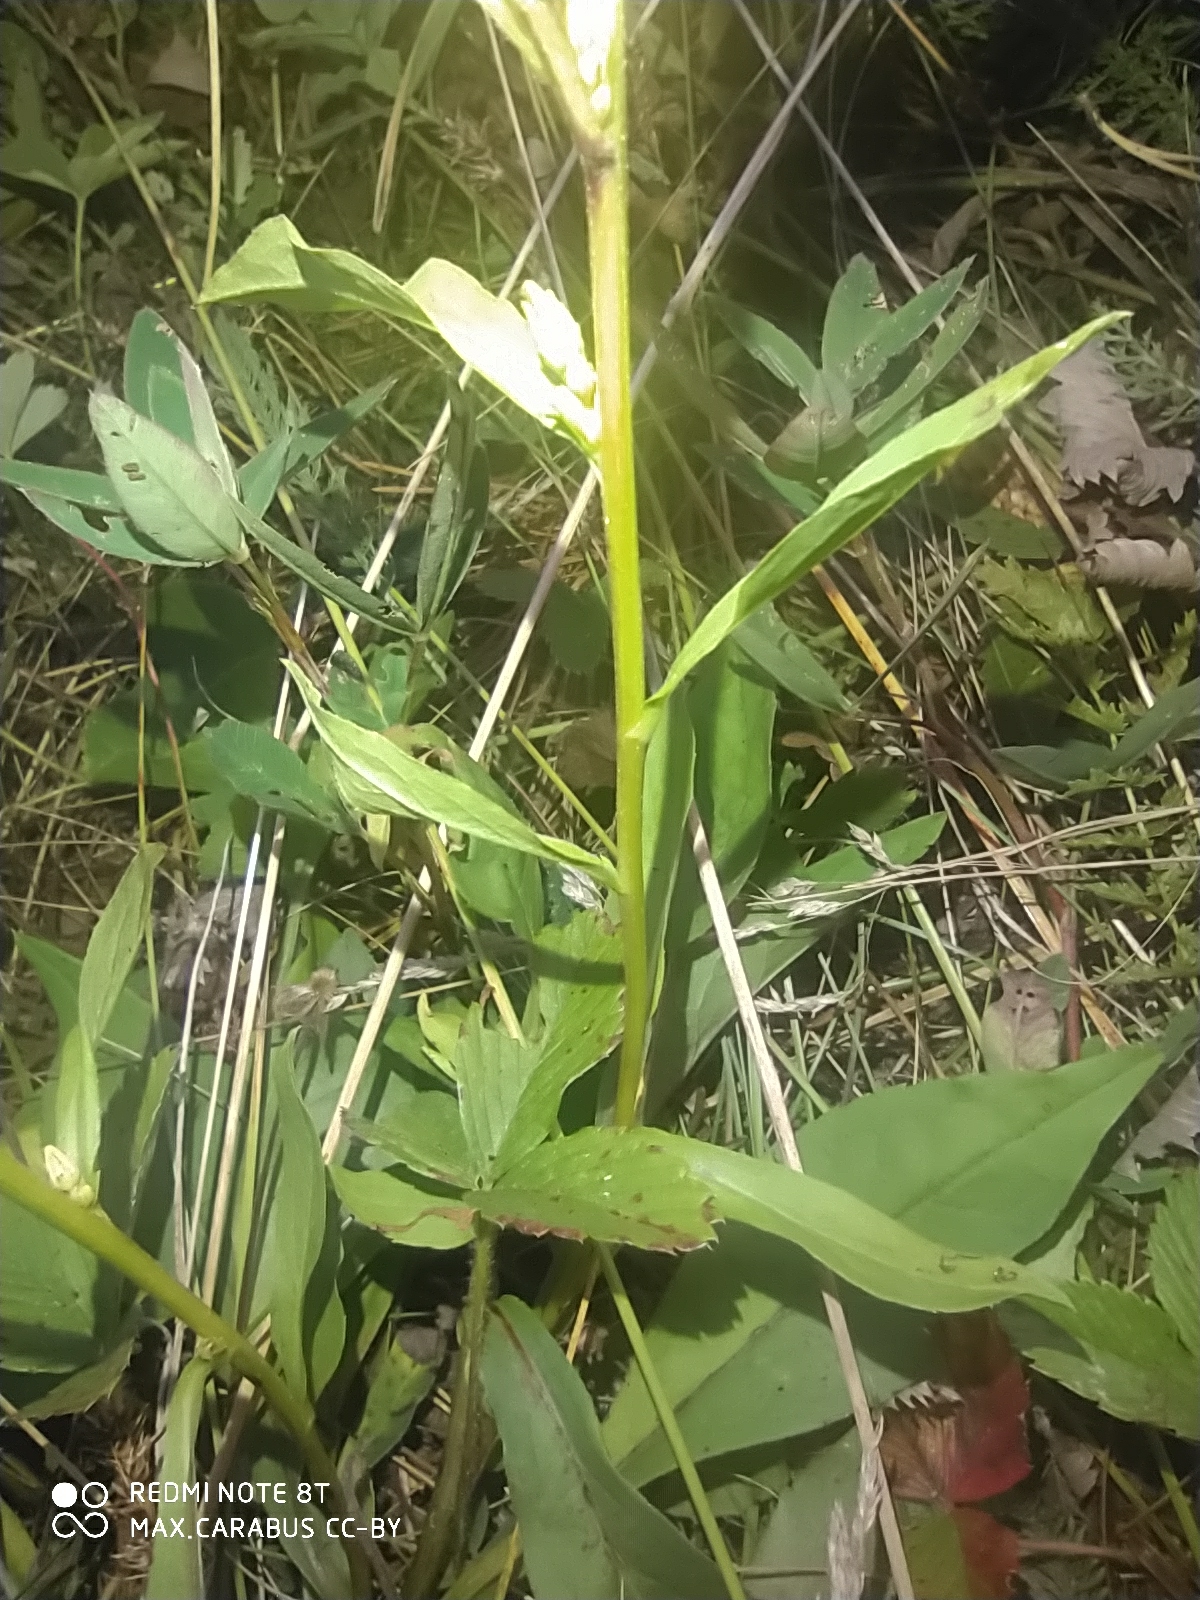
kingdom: Plantae
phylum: Tracheophyta
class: Magnoliopsida
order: Asterales
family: Asteraceae
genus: Solidago
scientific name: Solidago virgaurea
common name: Goldenrod
